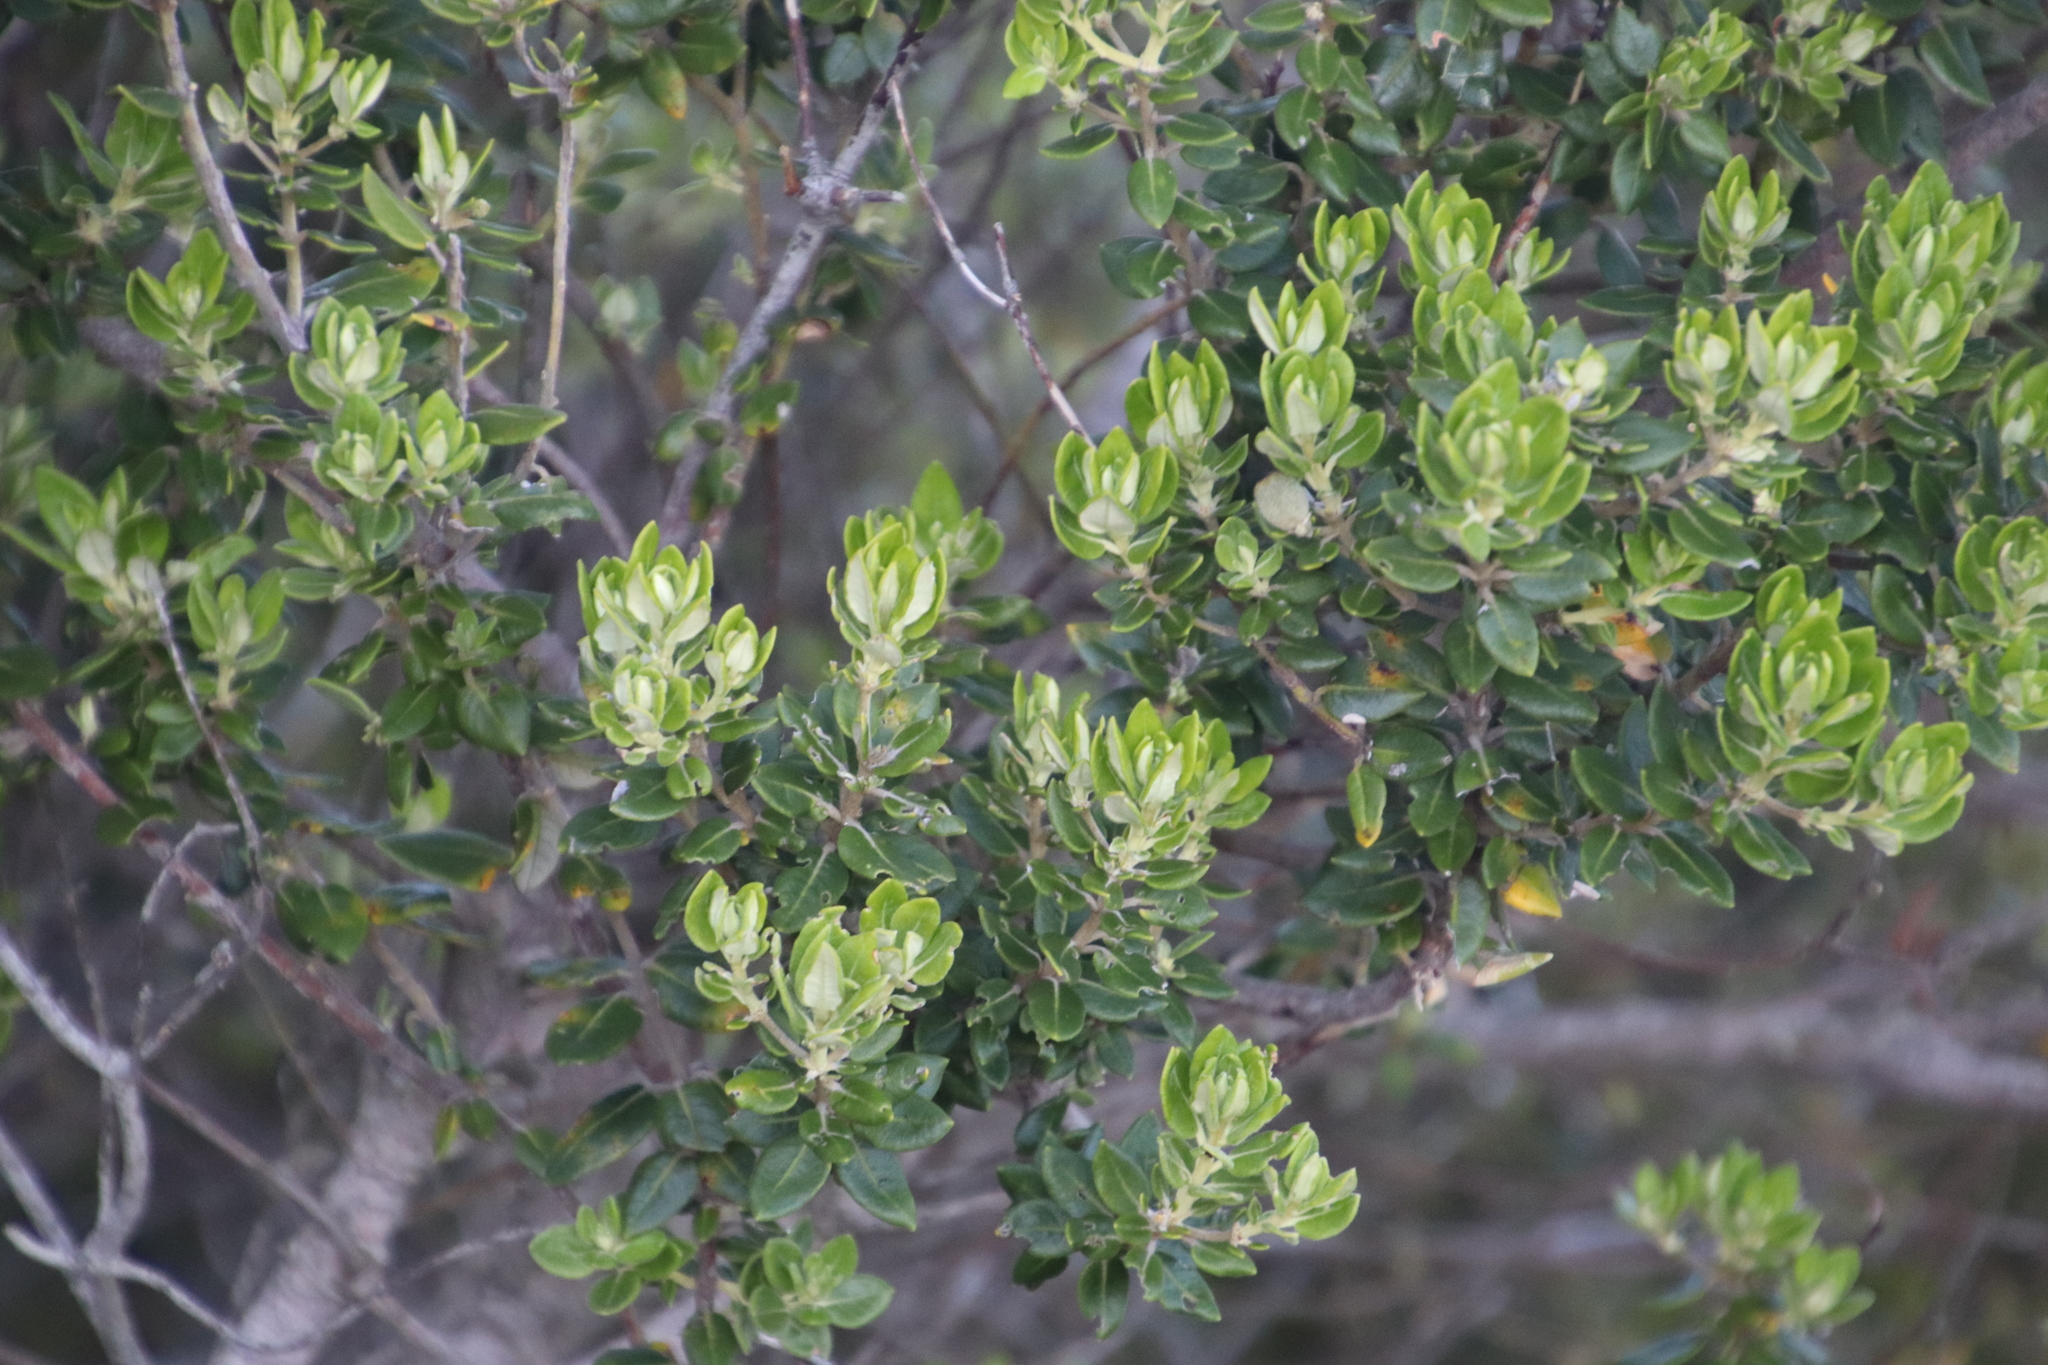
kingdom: Plantae
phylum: Tracheophyta
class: Magnoliopsida
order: Rosales
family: Rhamnaceae
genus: Phylica
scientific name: Phylica buxifolia
